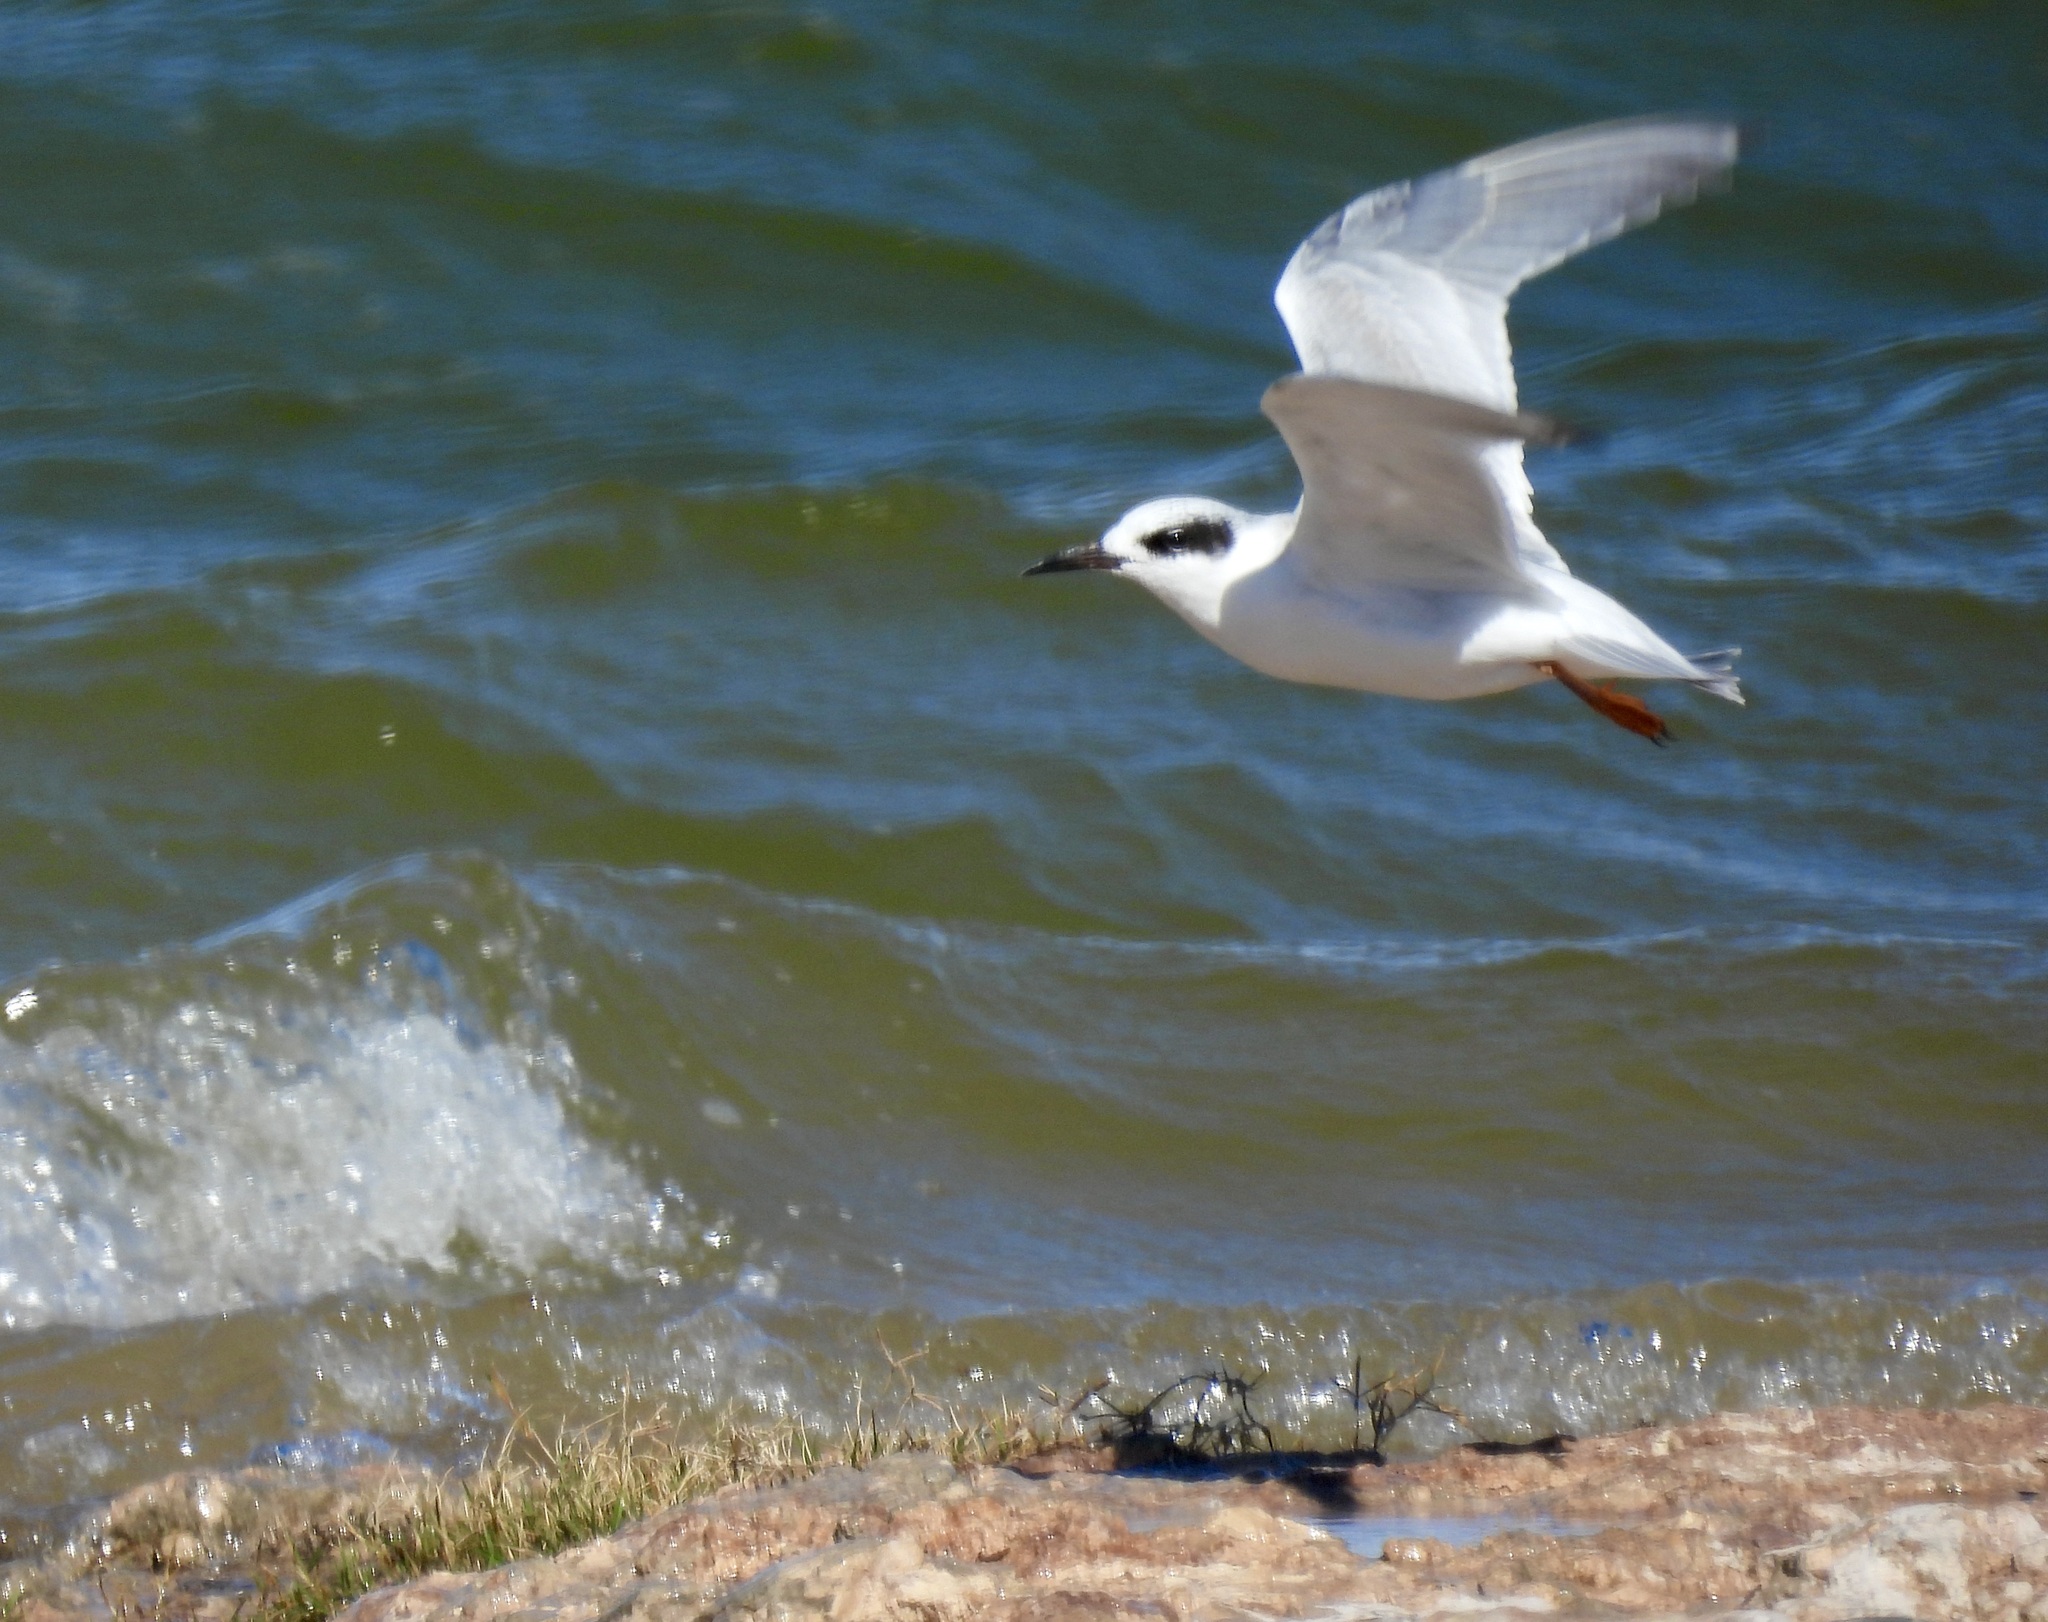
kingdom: Animalia
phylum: Chordata
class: Aves
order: Charadriiformes
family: Laridae
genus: Sterna
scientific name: Sterna forsteri
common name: Forster's tern
